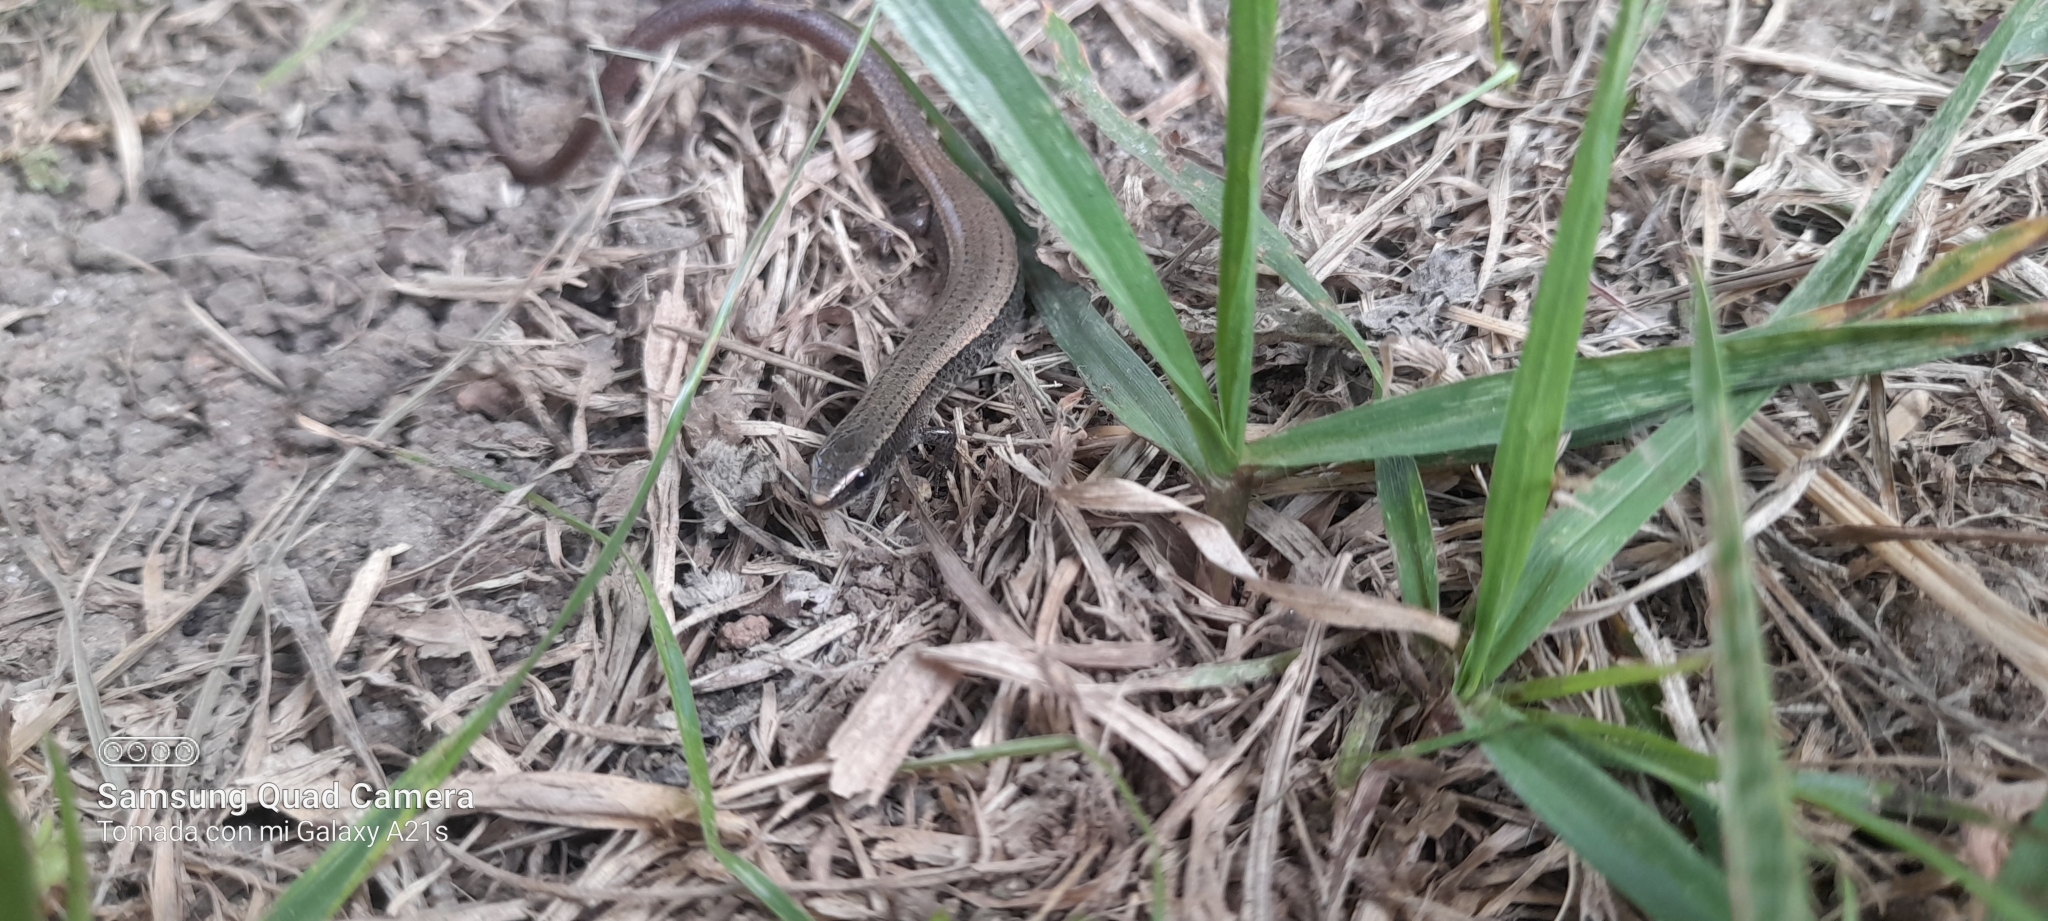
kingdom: Animalia
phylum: Chordata
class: Squamata
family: Gymnophthalmidae
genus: Gymnophthalmus
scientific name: Gymnophthalmus speciosus
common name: Golden spectacled tegu
